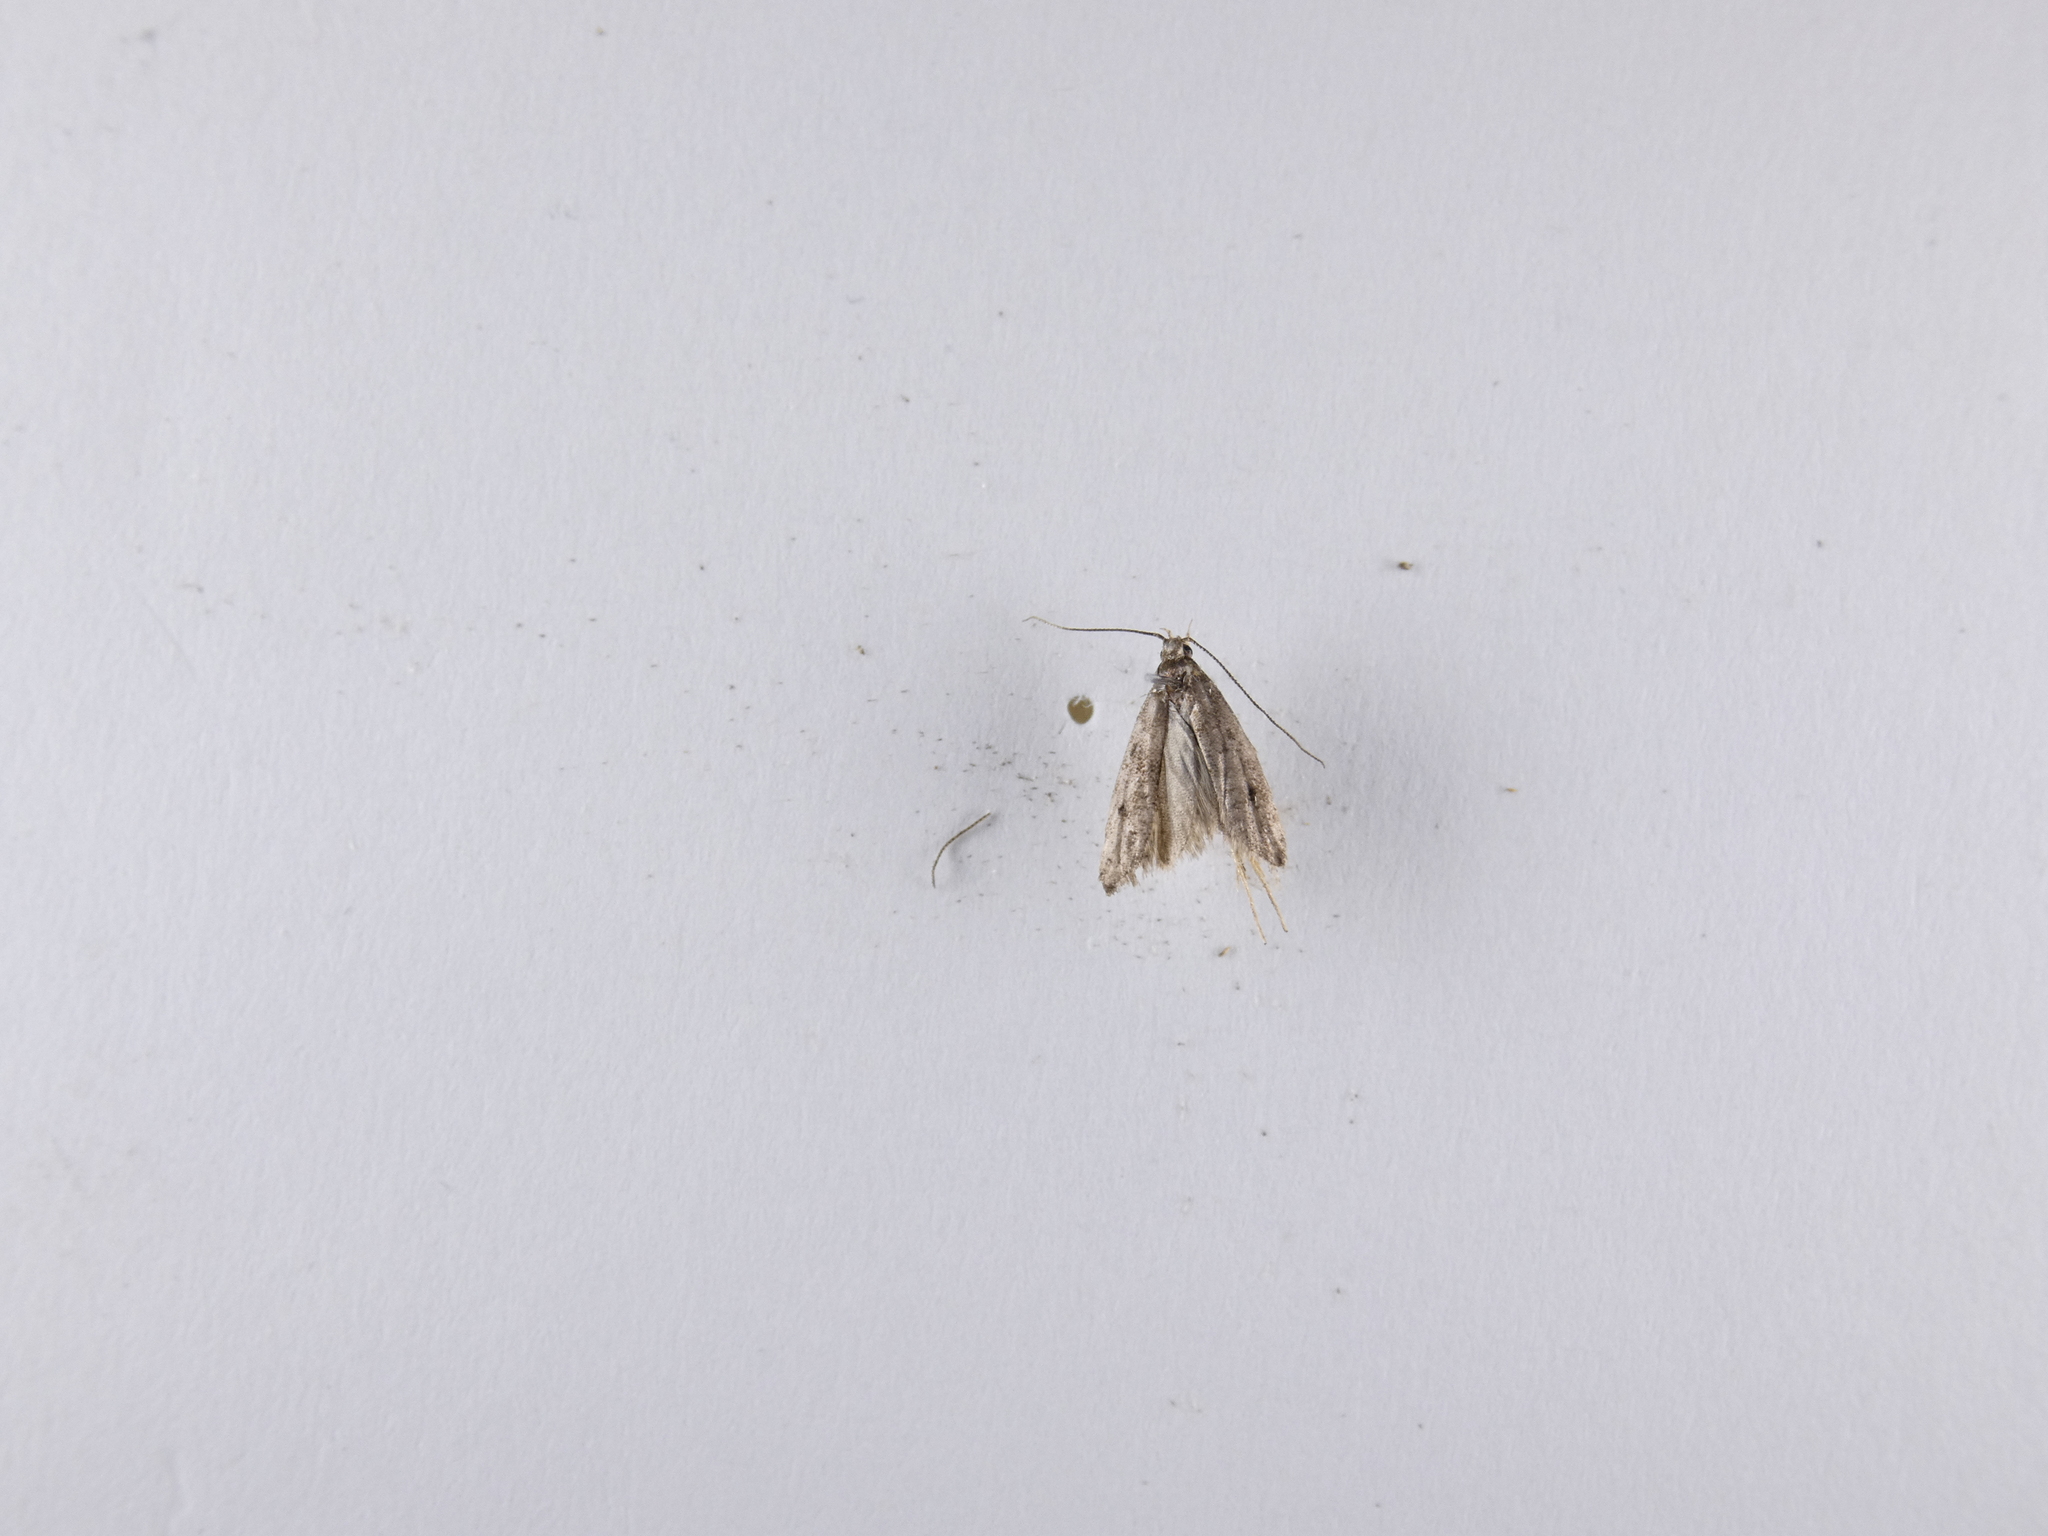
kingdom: Animalia
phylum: Arthropoda
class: Insecta
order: Lepidoptera
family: Oecophoridae
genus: Gymnobathra
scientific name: Gymnobathra tholodella
